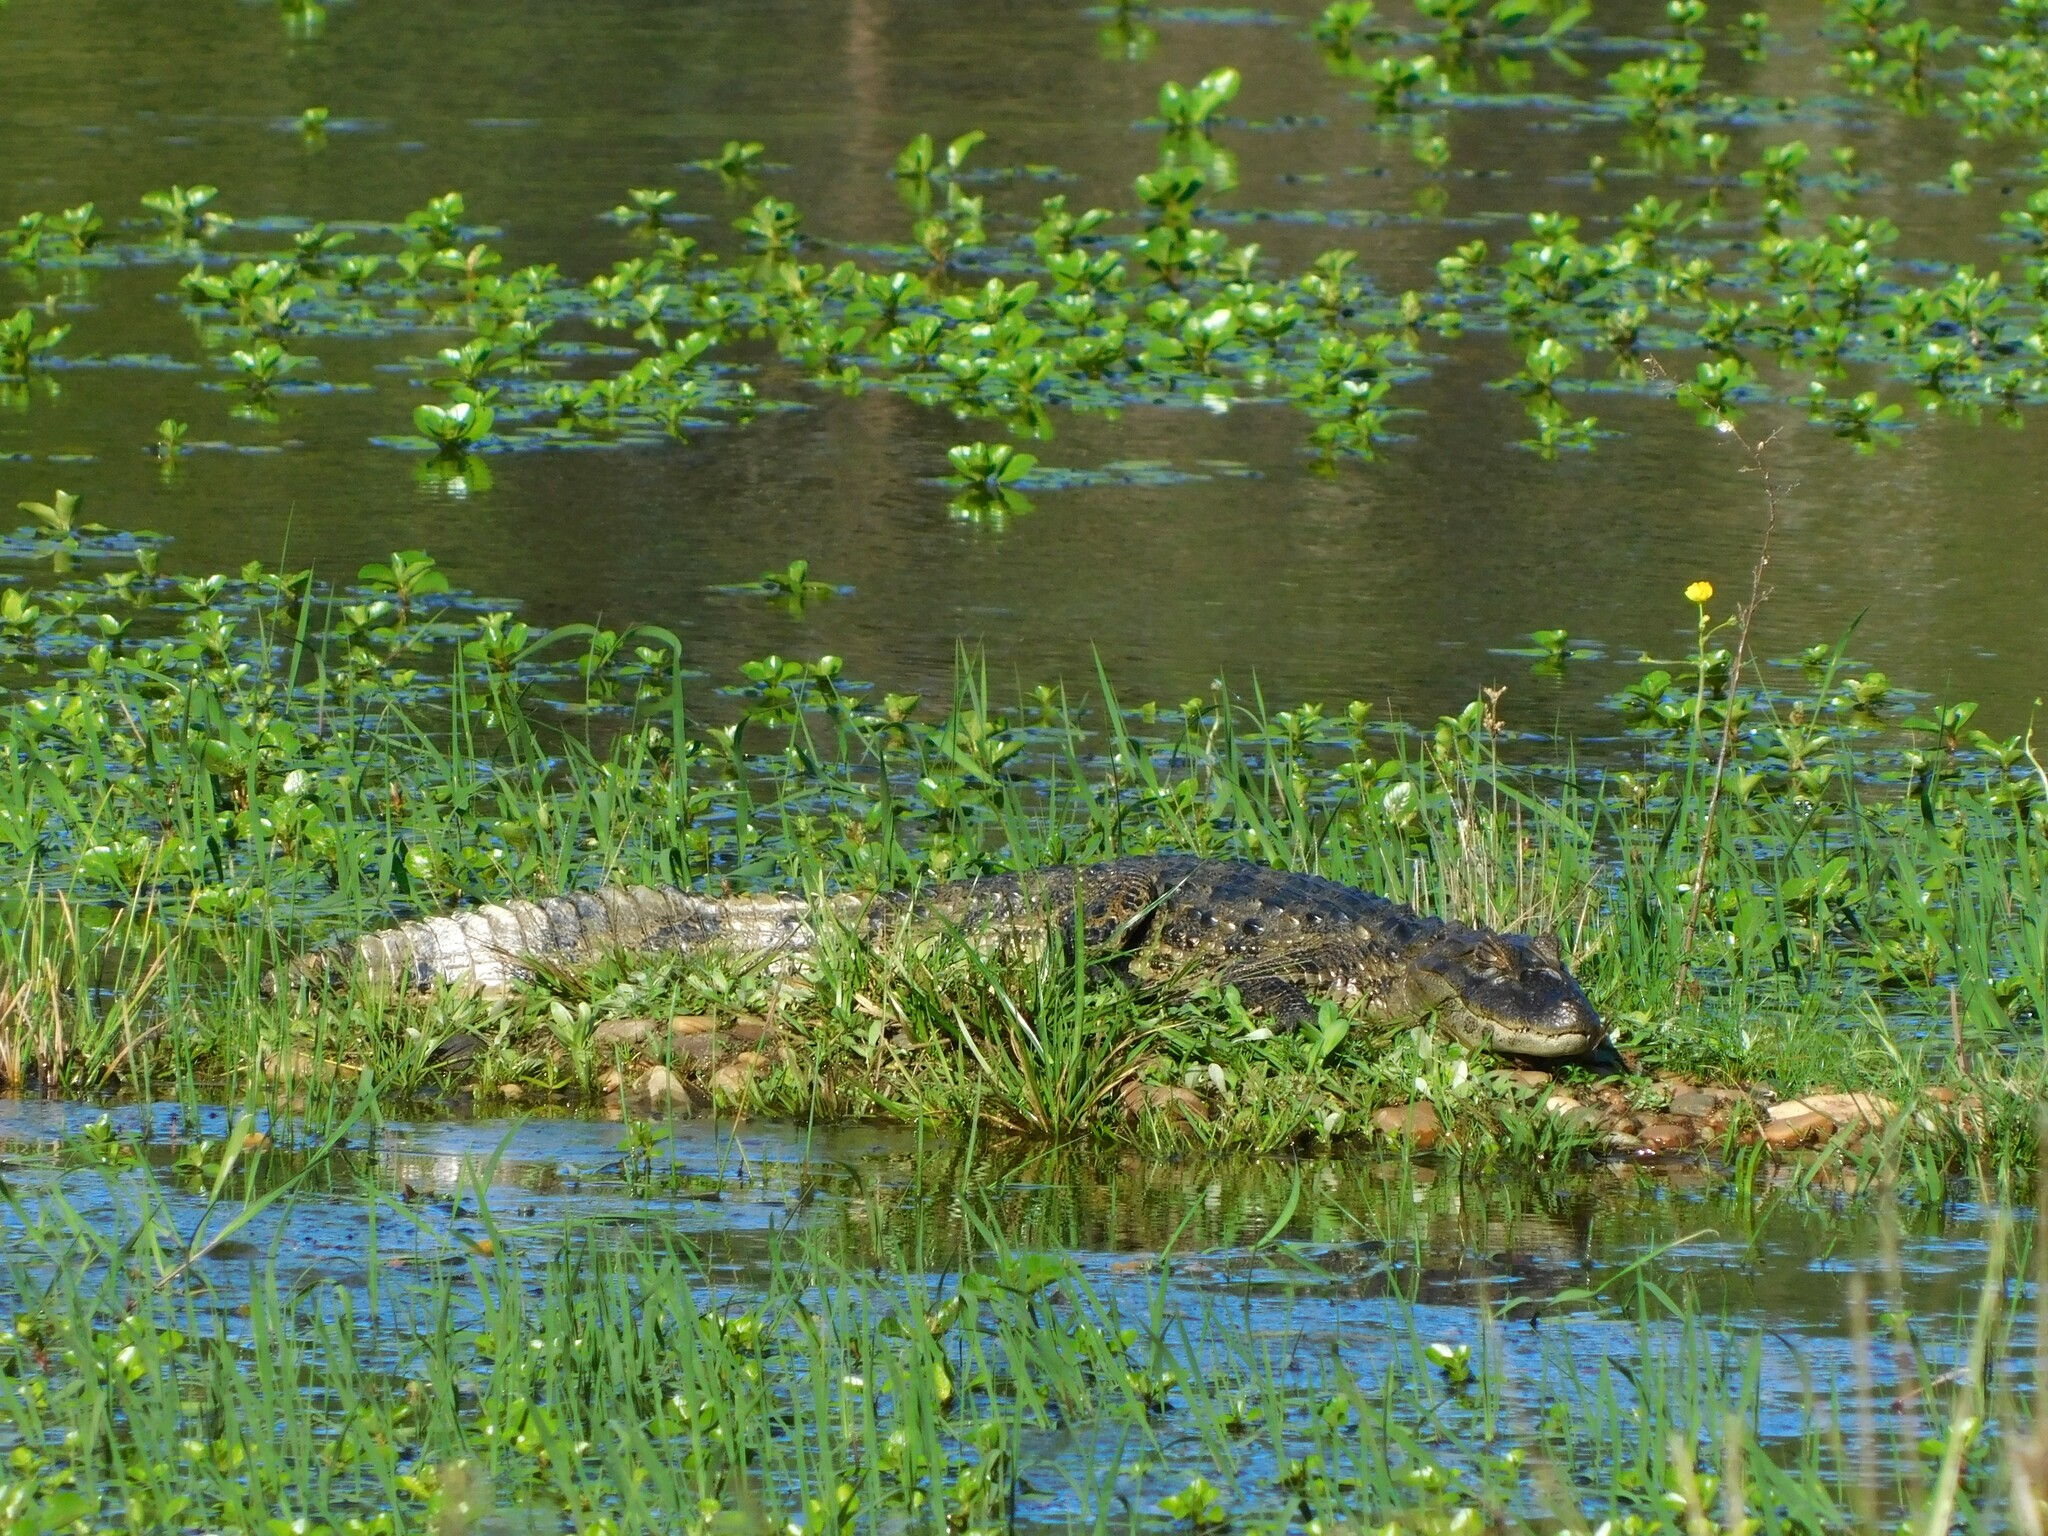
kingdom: Animalia
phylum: Chordata
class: Crocodylia
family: Alligatoridae
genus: Caiman
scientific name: Caiman latirostris
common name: Broad-snouted caiman
